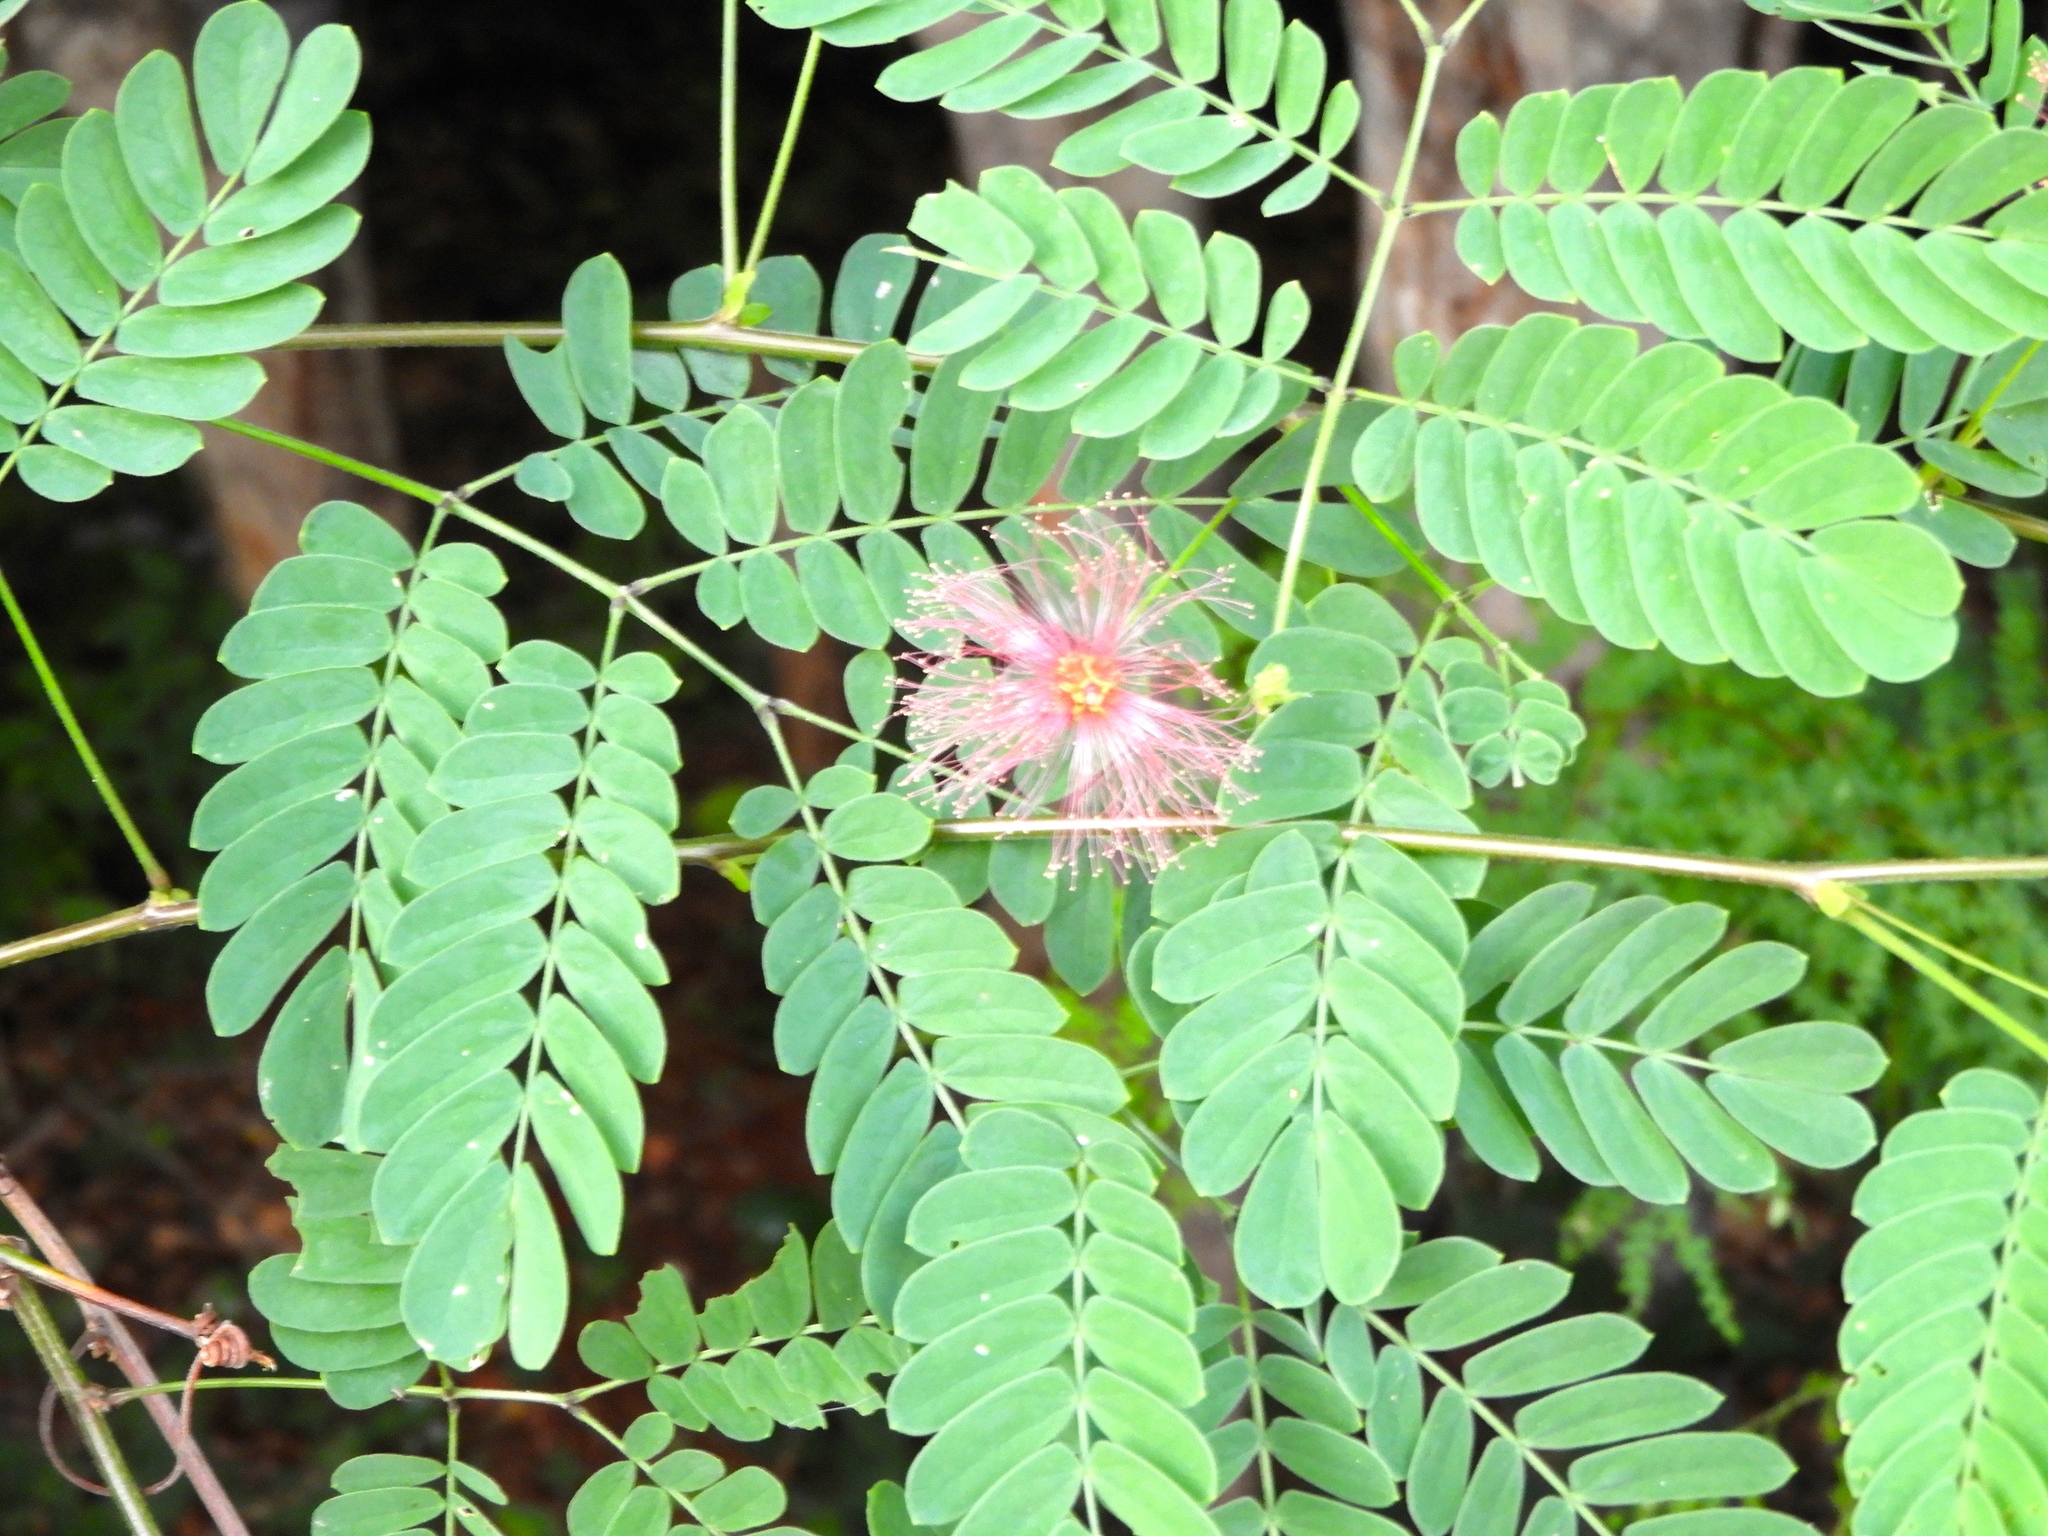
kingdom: Plantae
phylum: Tracheophyta
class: Magnoliopsida
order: Fabales
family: Fabaceae
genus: Zapoteca
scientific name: Zapoteca formosa
